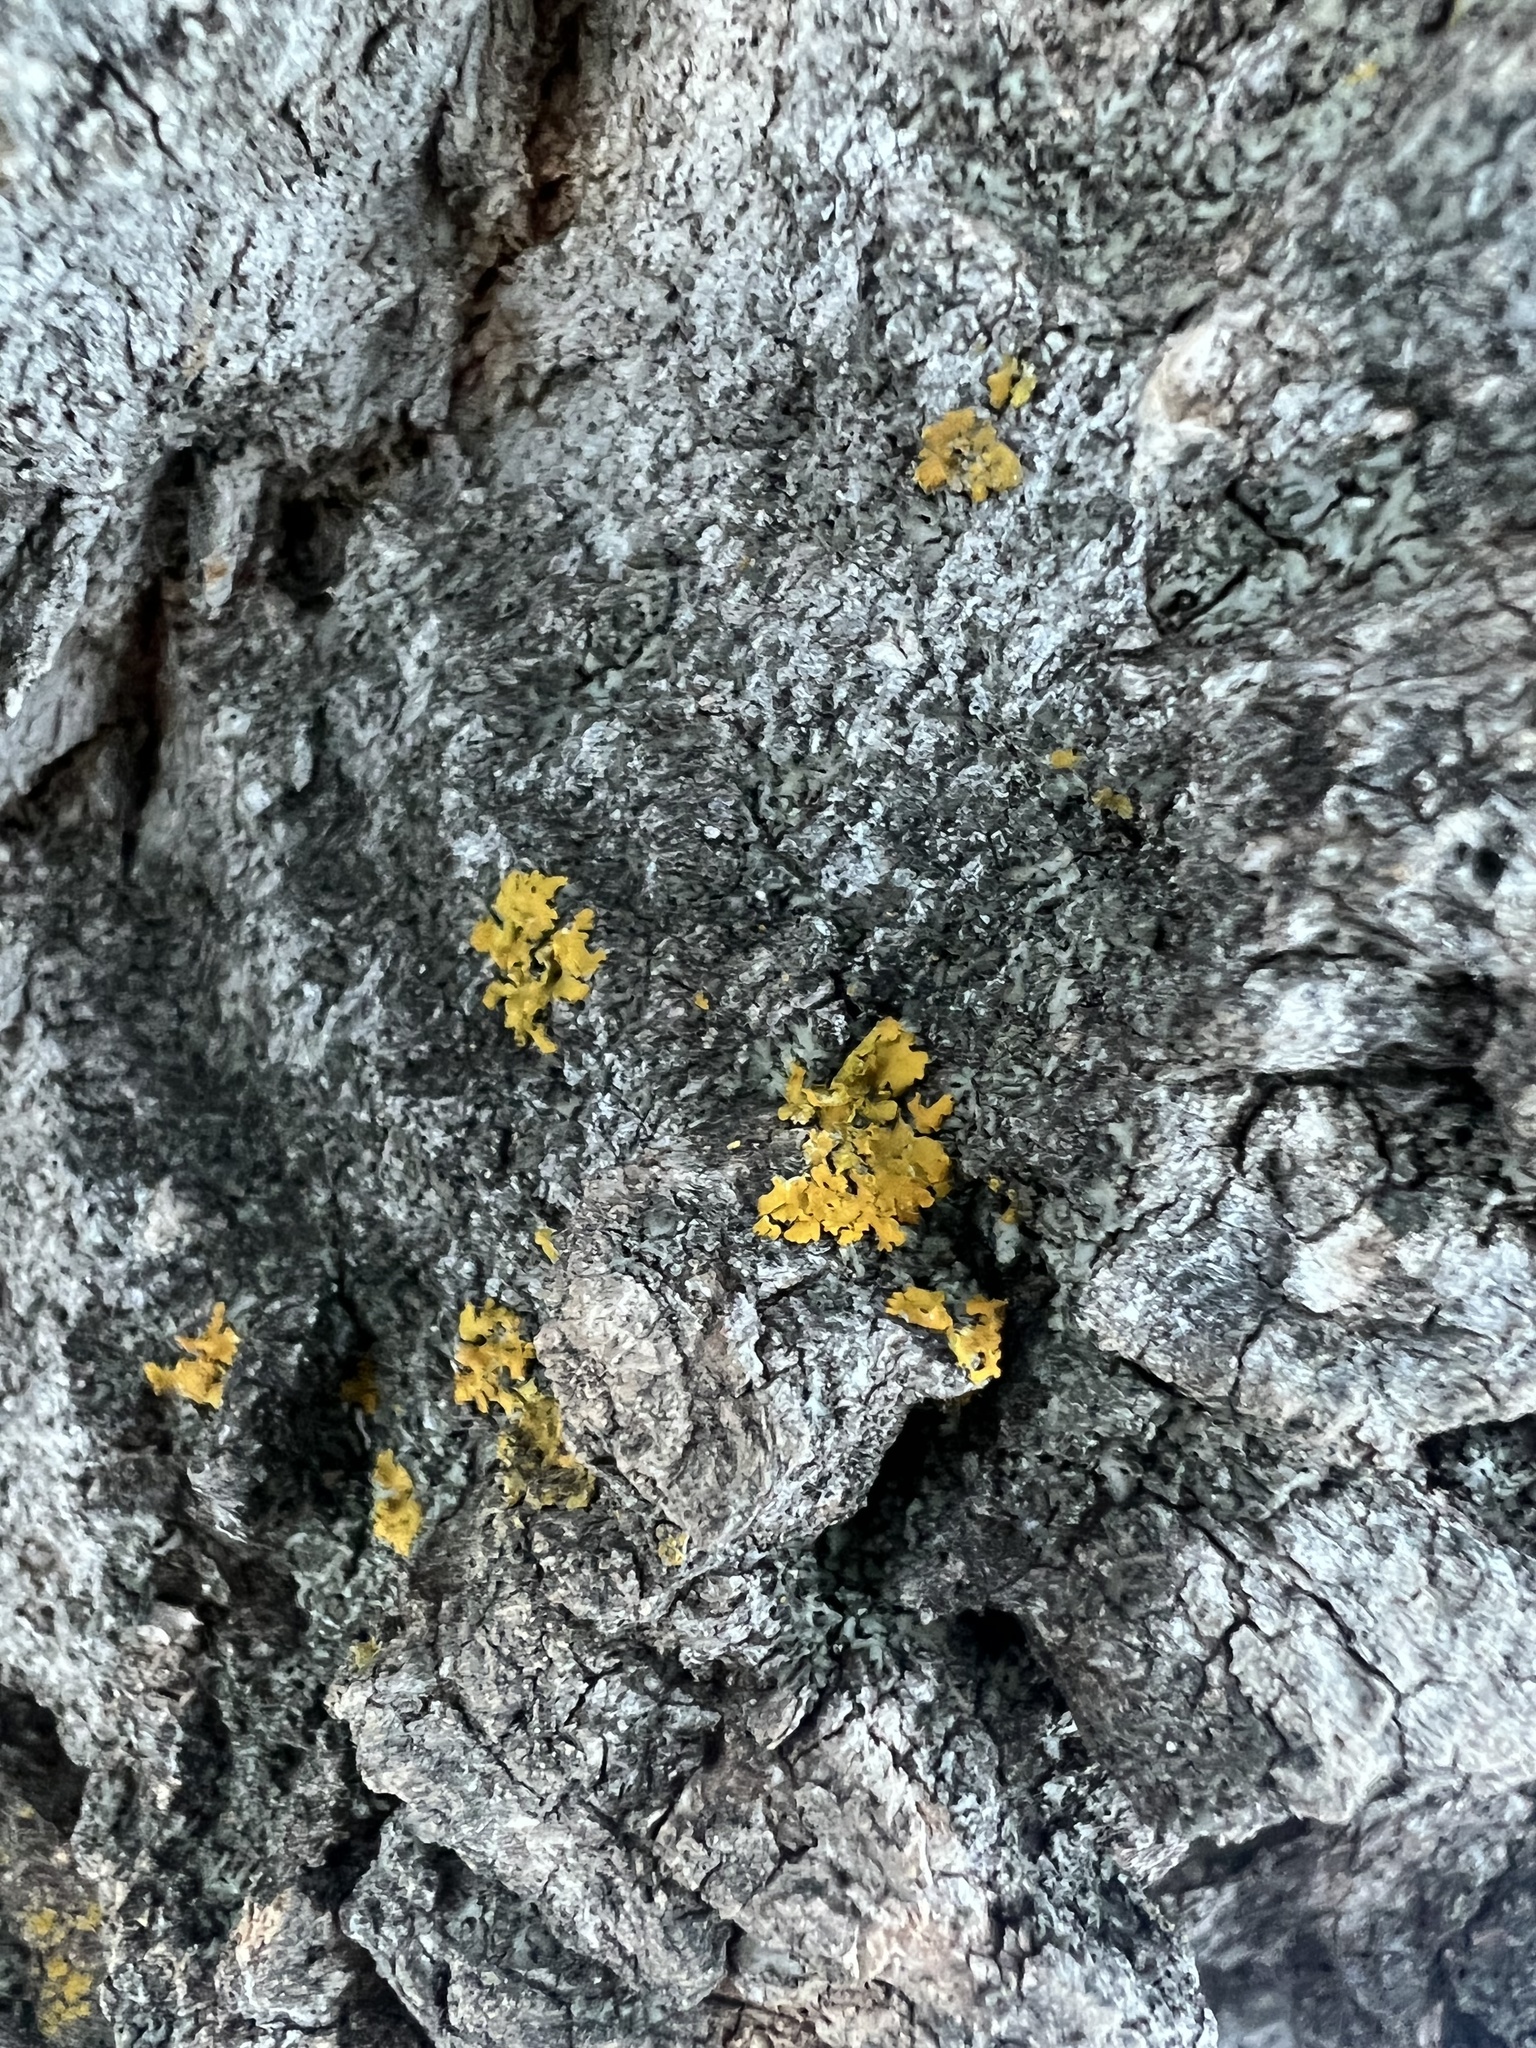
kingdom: Fungi
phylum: Ascomycota
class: Lecanoromycetes
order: Teloschistales
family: Teloschistaceae
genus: Oxneria
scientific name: Oxneria fallax
